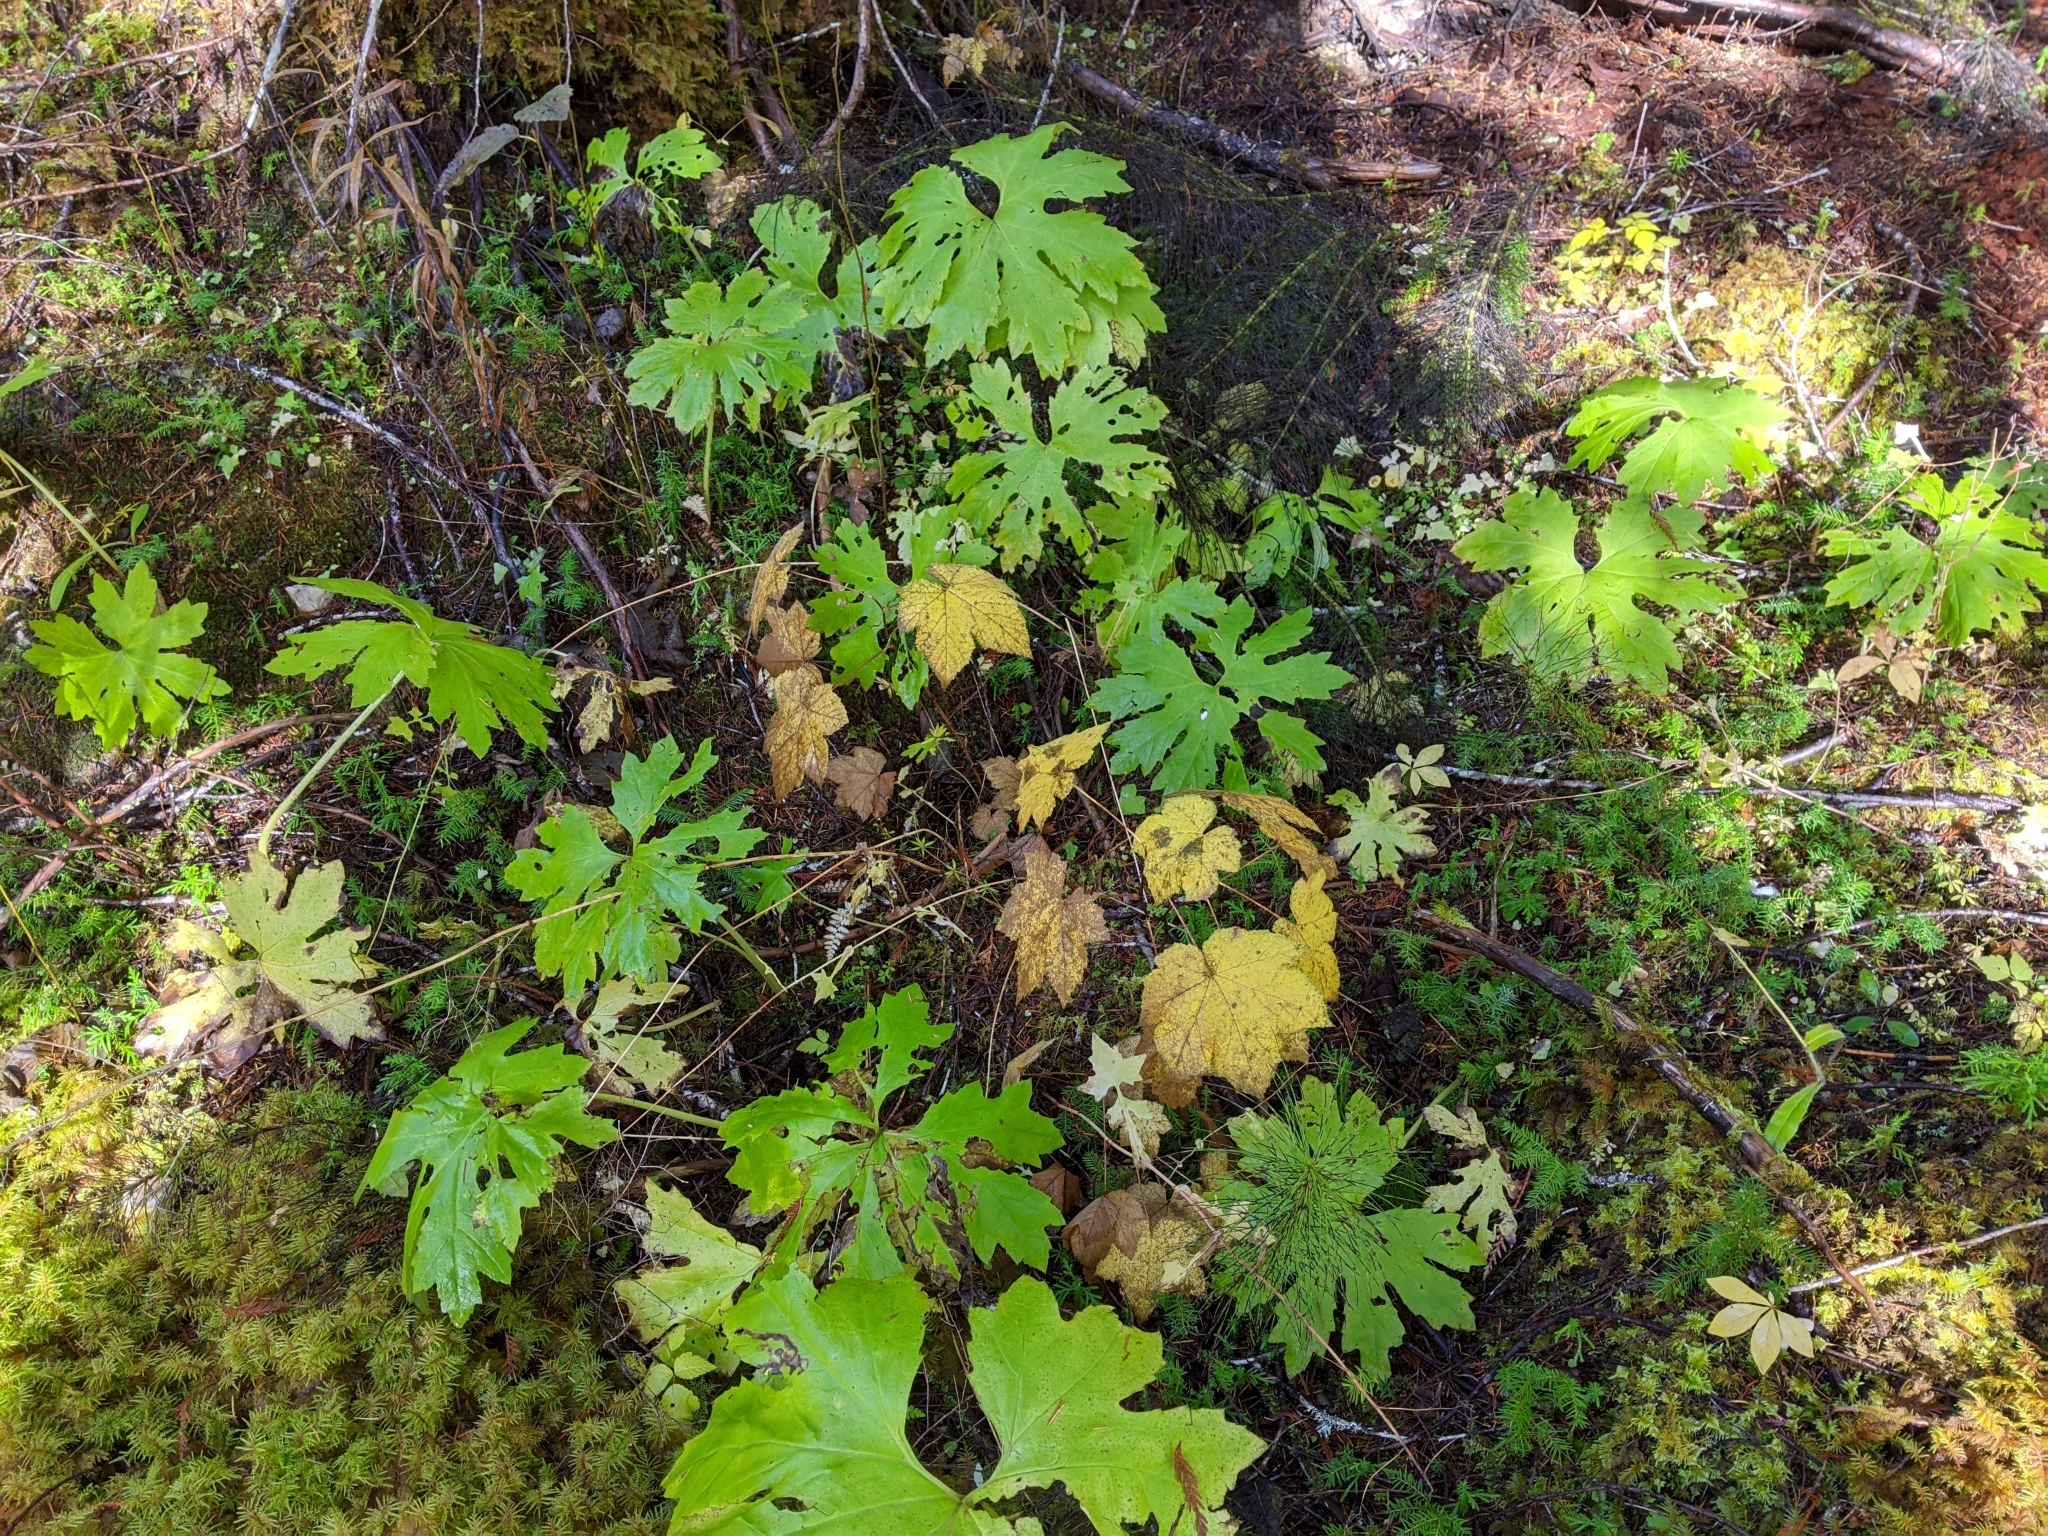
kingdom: Plantae
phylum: Tracheophyta
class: Magnoliopsida
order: Asterales
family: Asteraceae
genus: Petasites
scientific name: Petasites frigidus
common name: Arctic butterbur
